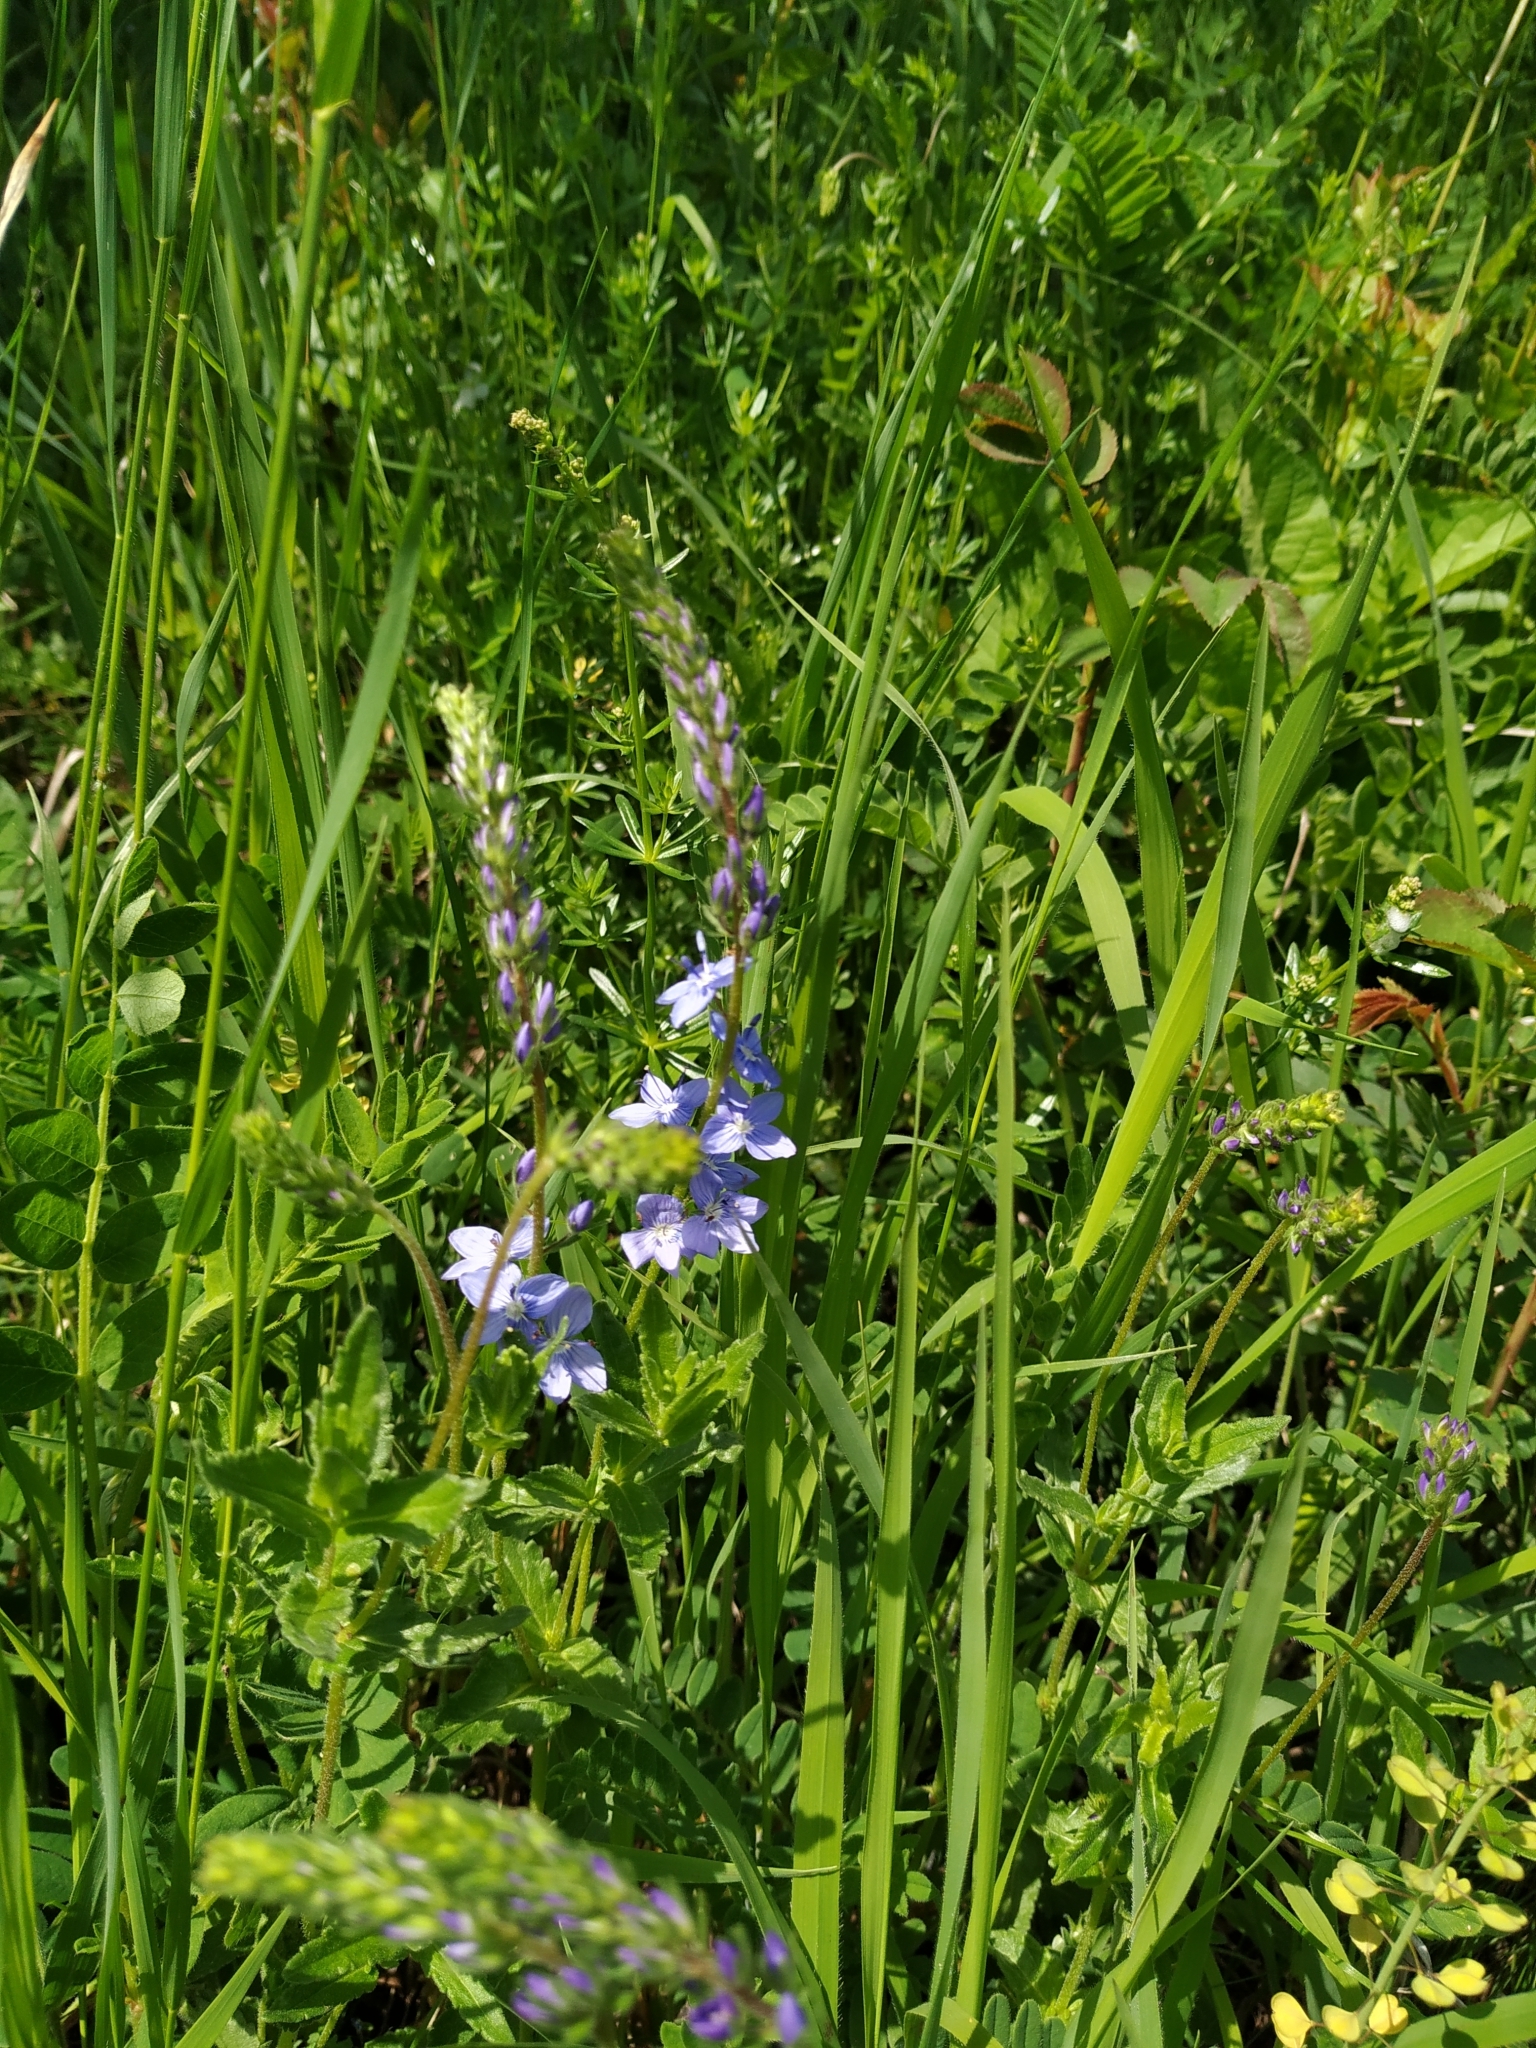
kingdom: Plantae
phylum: Tracheophyta
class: Magnoliopsida
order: Lamiales
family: Plantaginaceae
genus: Veronica
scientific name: Veronica teucrium
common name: Large speedwell
